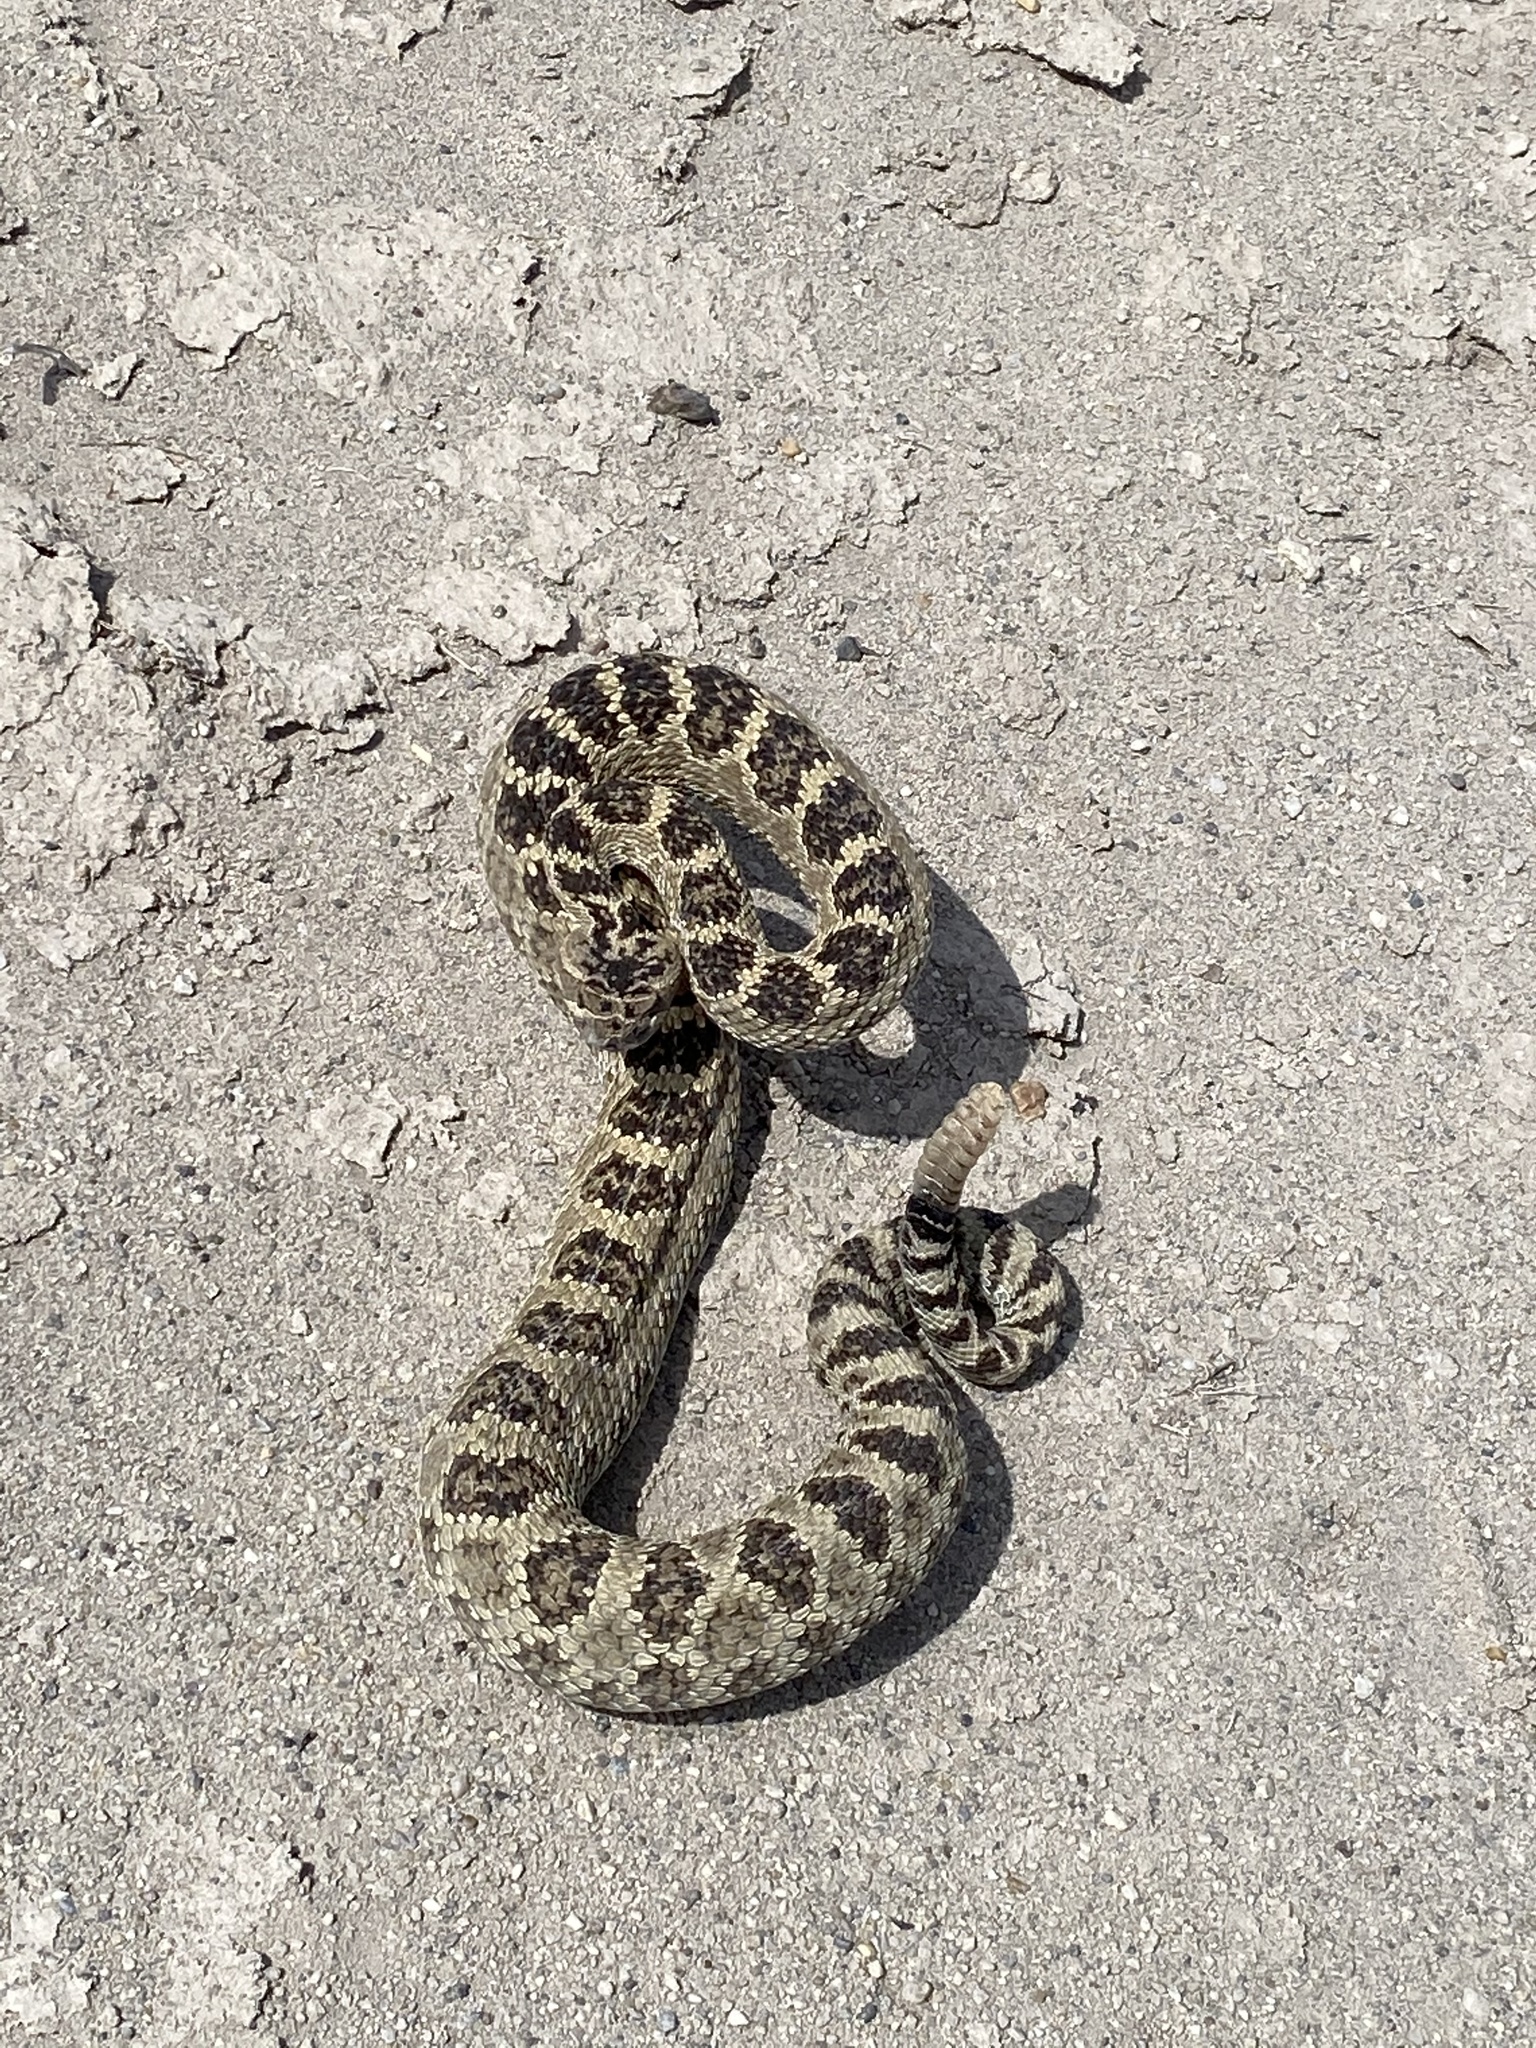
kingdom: Animalia
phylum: Chordata
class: Squamata
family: Viperidae
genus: Crotalus
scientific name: Crotalus oreganus
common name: Abyssus
